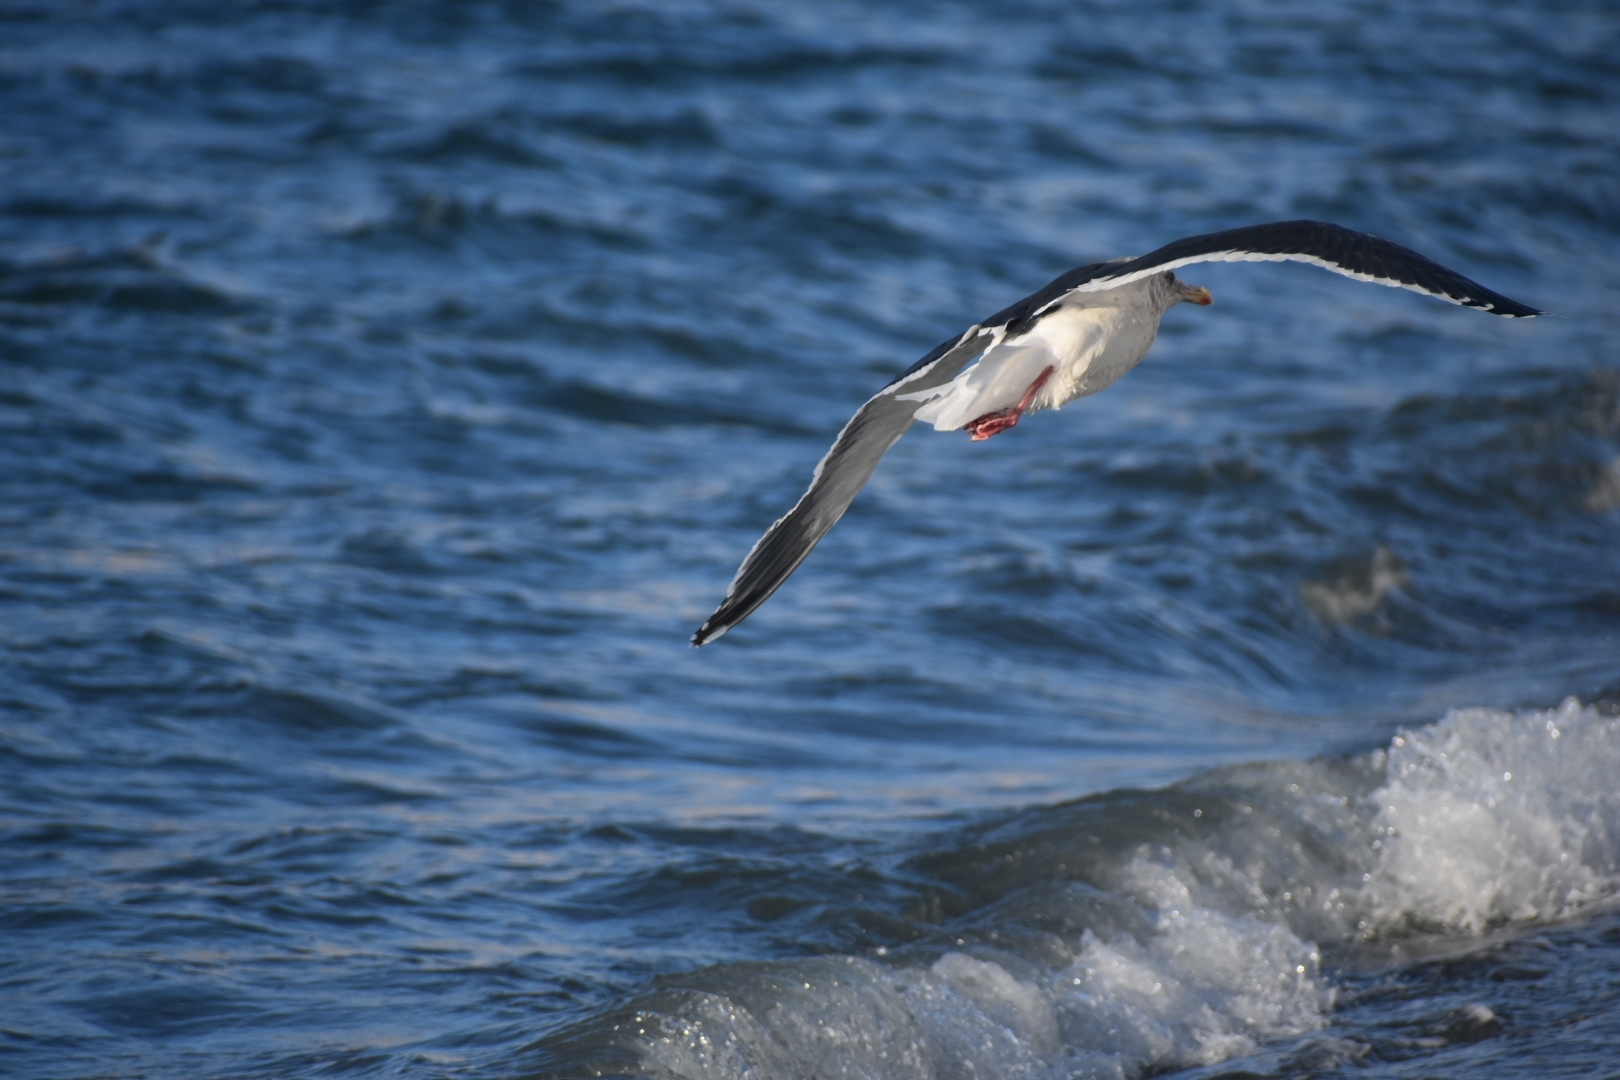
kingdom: Animalia
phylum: Chordata
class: Aves
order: Charadriiformes
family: Laridae
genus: Larus
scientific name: Larus schistisagus
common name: Slaty-backed gull
